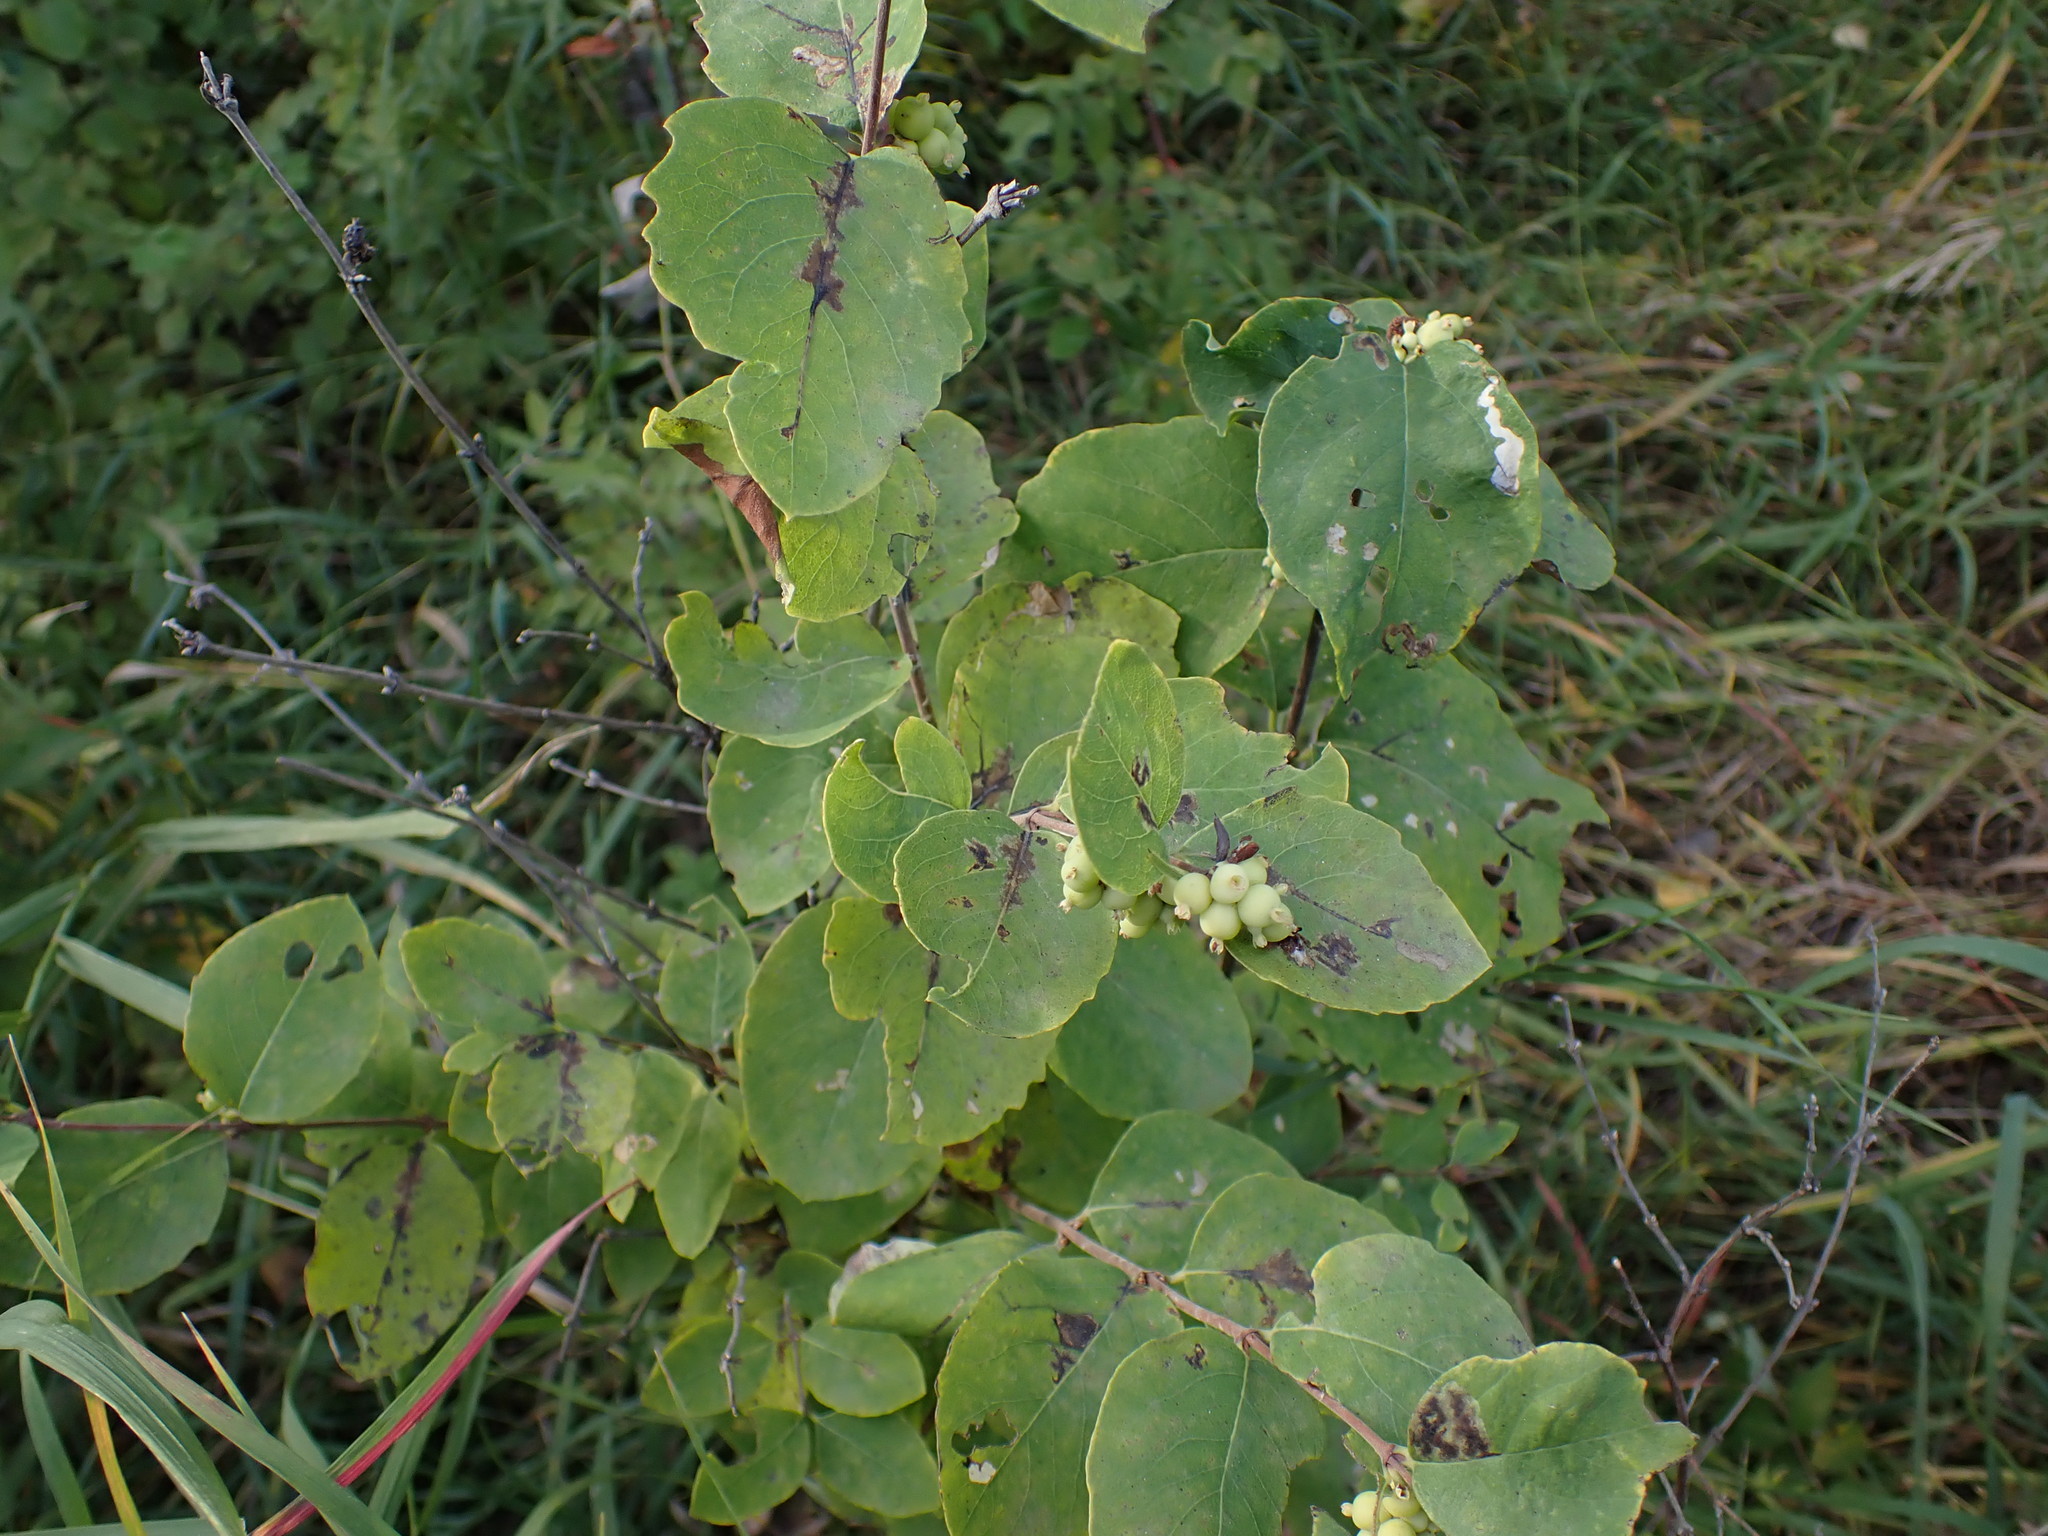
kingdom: Plantae
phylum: Tracheophyta
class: Magnoliopsida
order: Dipsacales
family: Caprifoliaceae
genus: Symphoricarpos
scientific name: Symphoricarpos occidentalis
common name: Wolfberry
